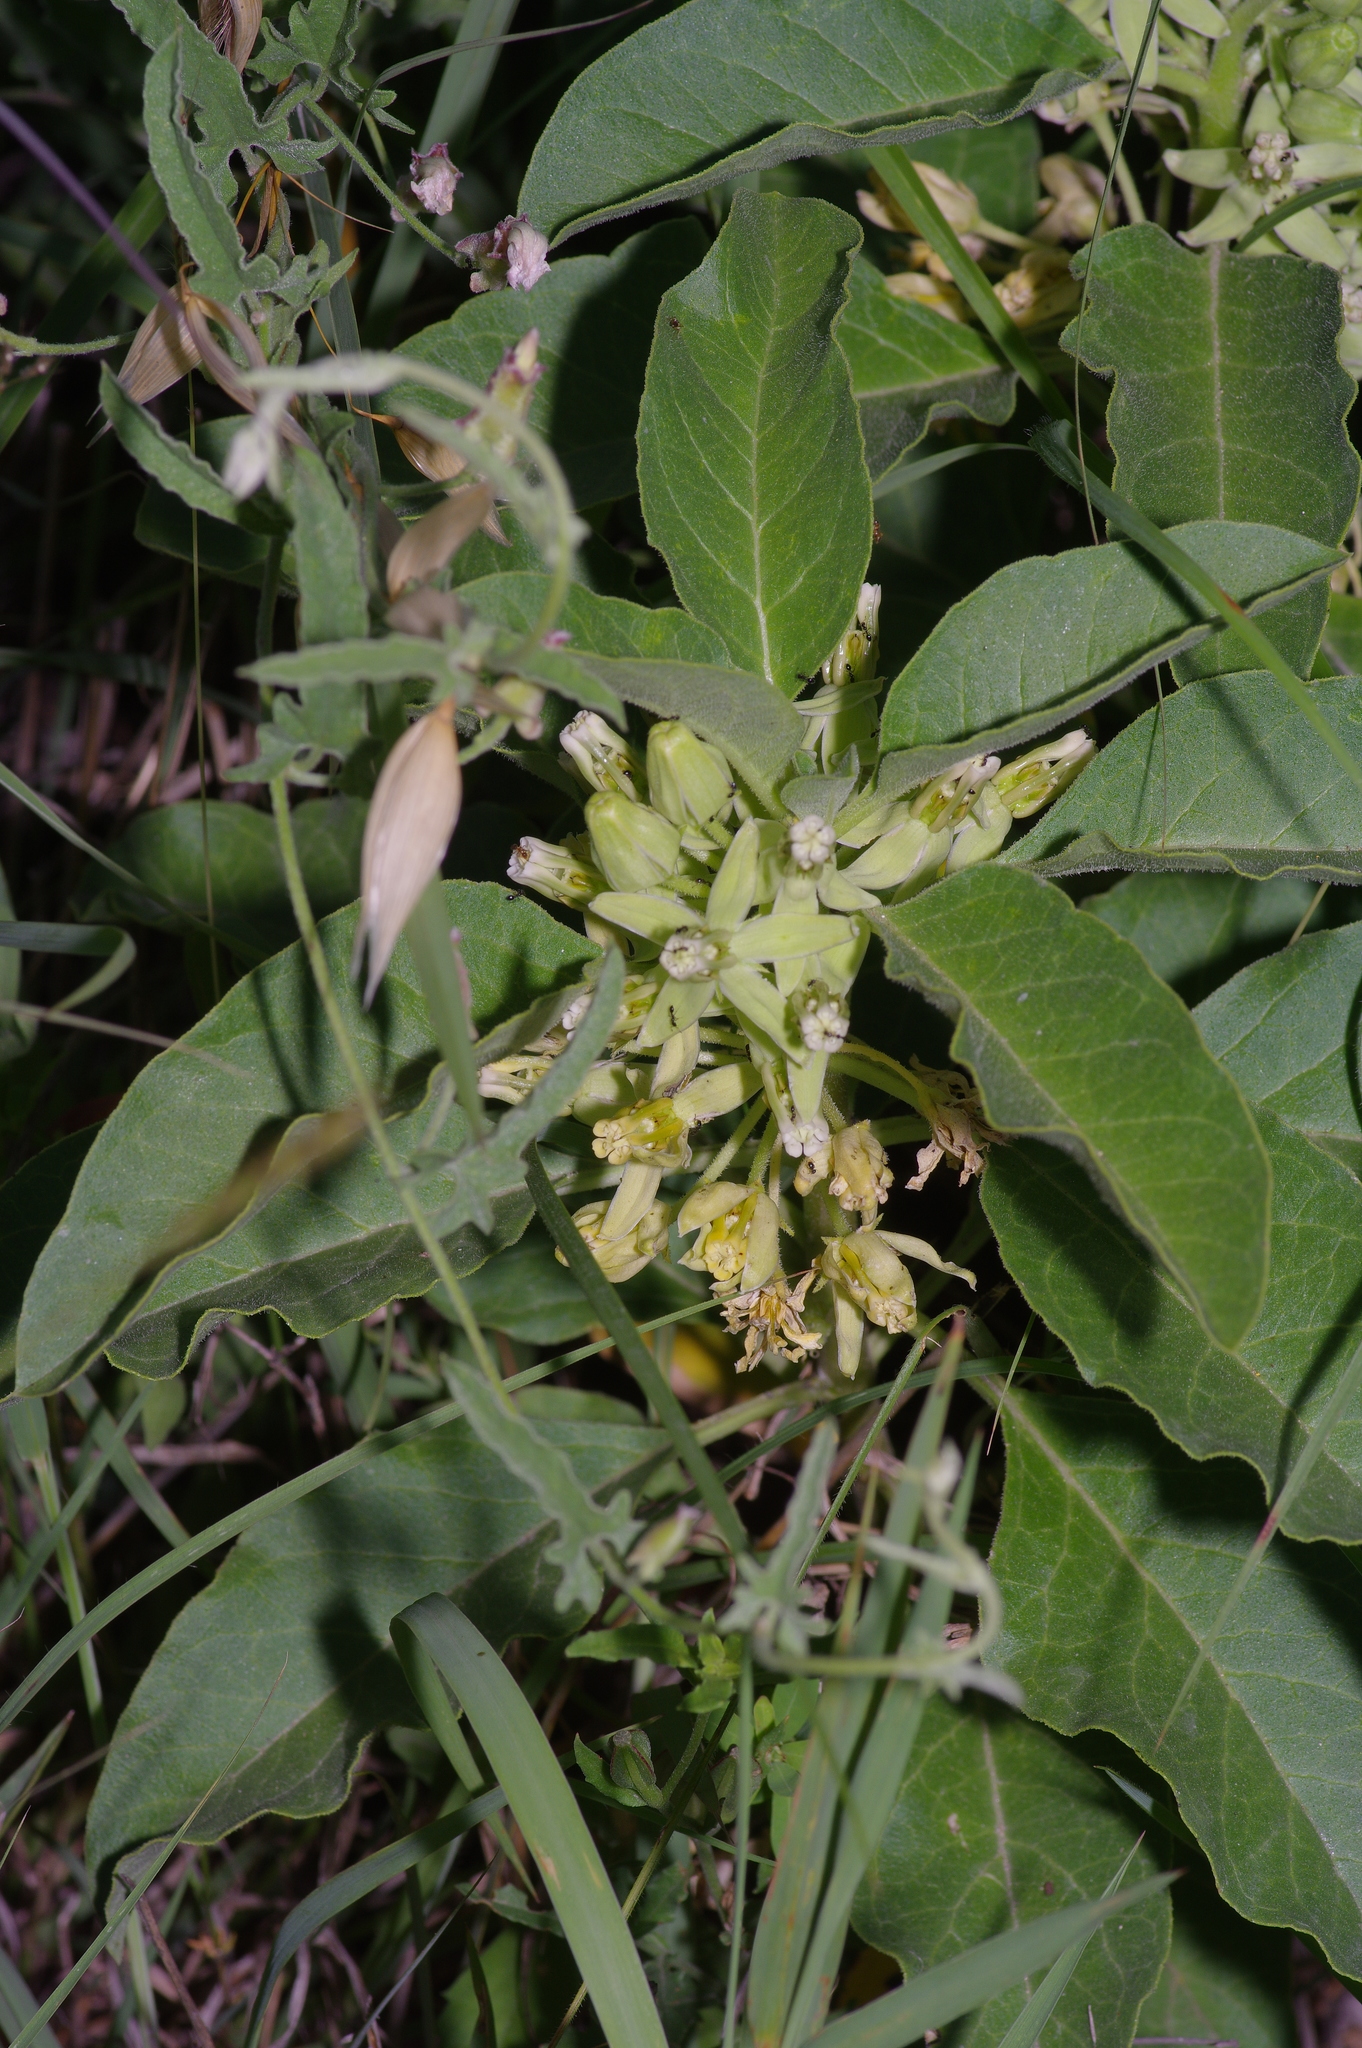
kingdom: Plantae
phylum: Tracheophyta
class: Magnoliopsida
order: Gentianales
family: Apocynaceae
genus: Asclepias
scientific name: Asclepias oenotheroides
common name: Zizotes milkweed
